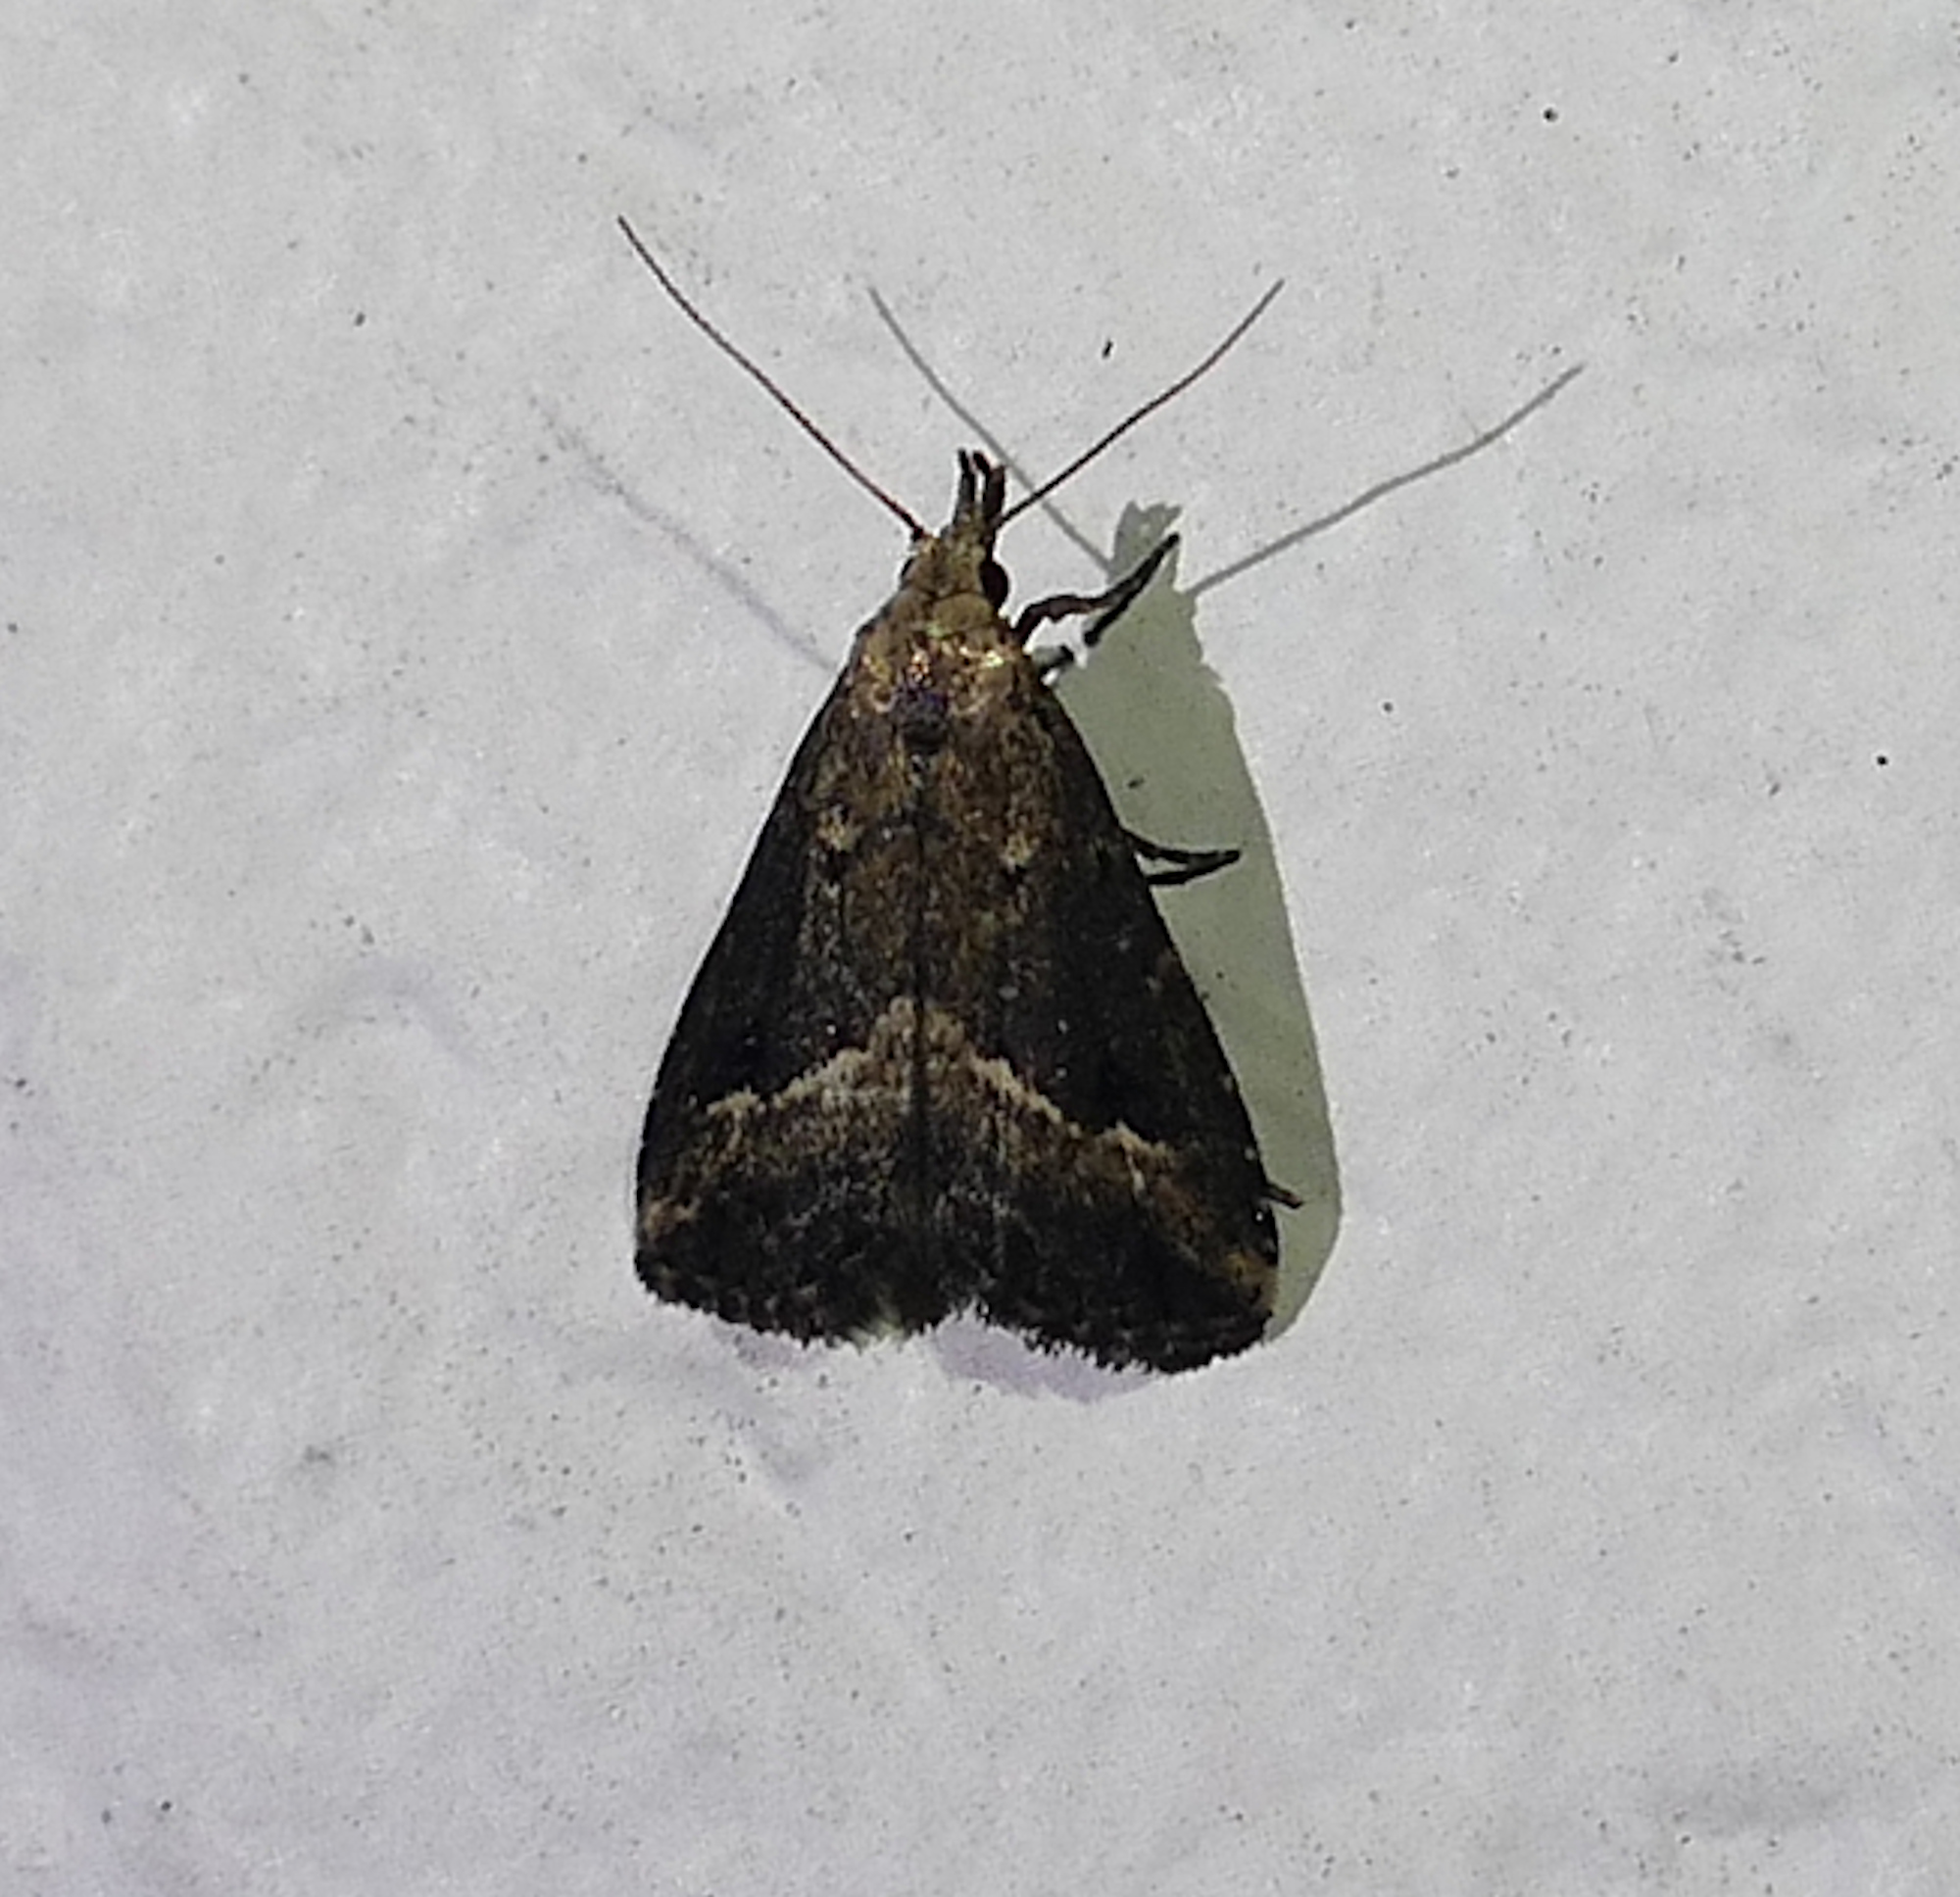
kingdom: Animalia
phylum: Arthropoda
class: Insecta
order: Lepidoptera
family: Erebidae
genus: Schrankia
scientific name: Schrankia
